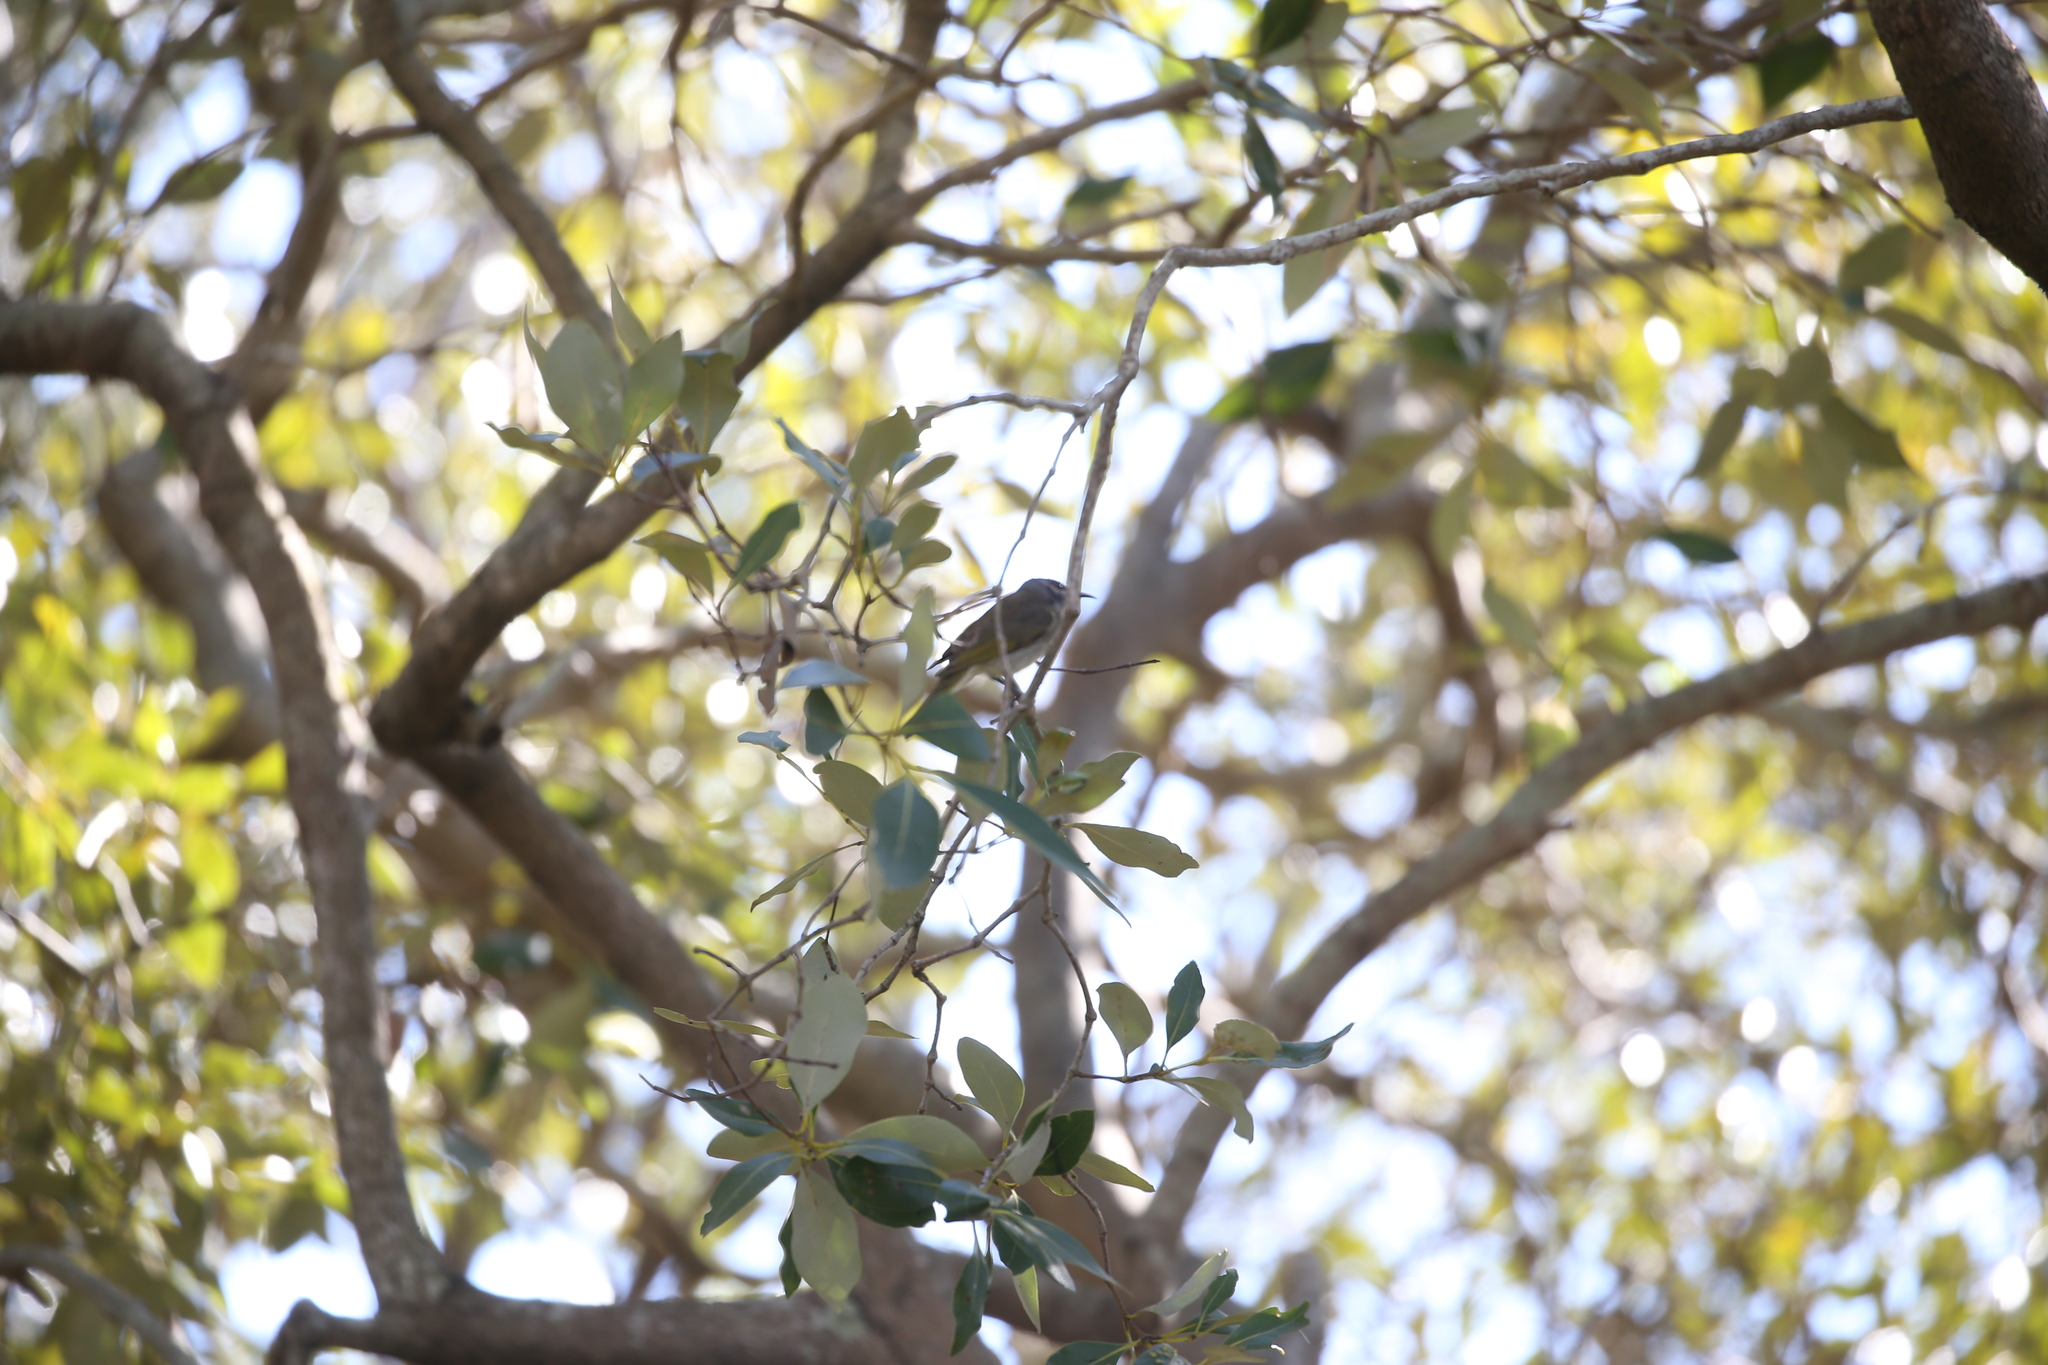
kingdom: Animalia
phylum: Chordata
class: Aves
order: Passeriformes
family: Meliphagidae
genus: Lichmera
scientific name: Lichmera indistincta
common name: Brown honeyeater
